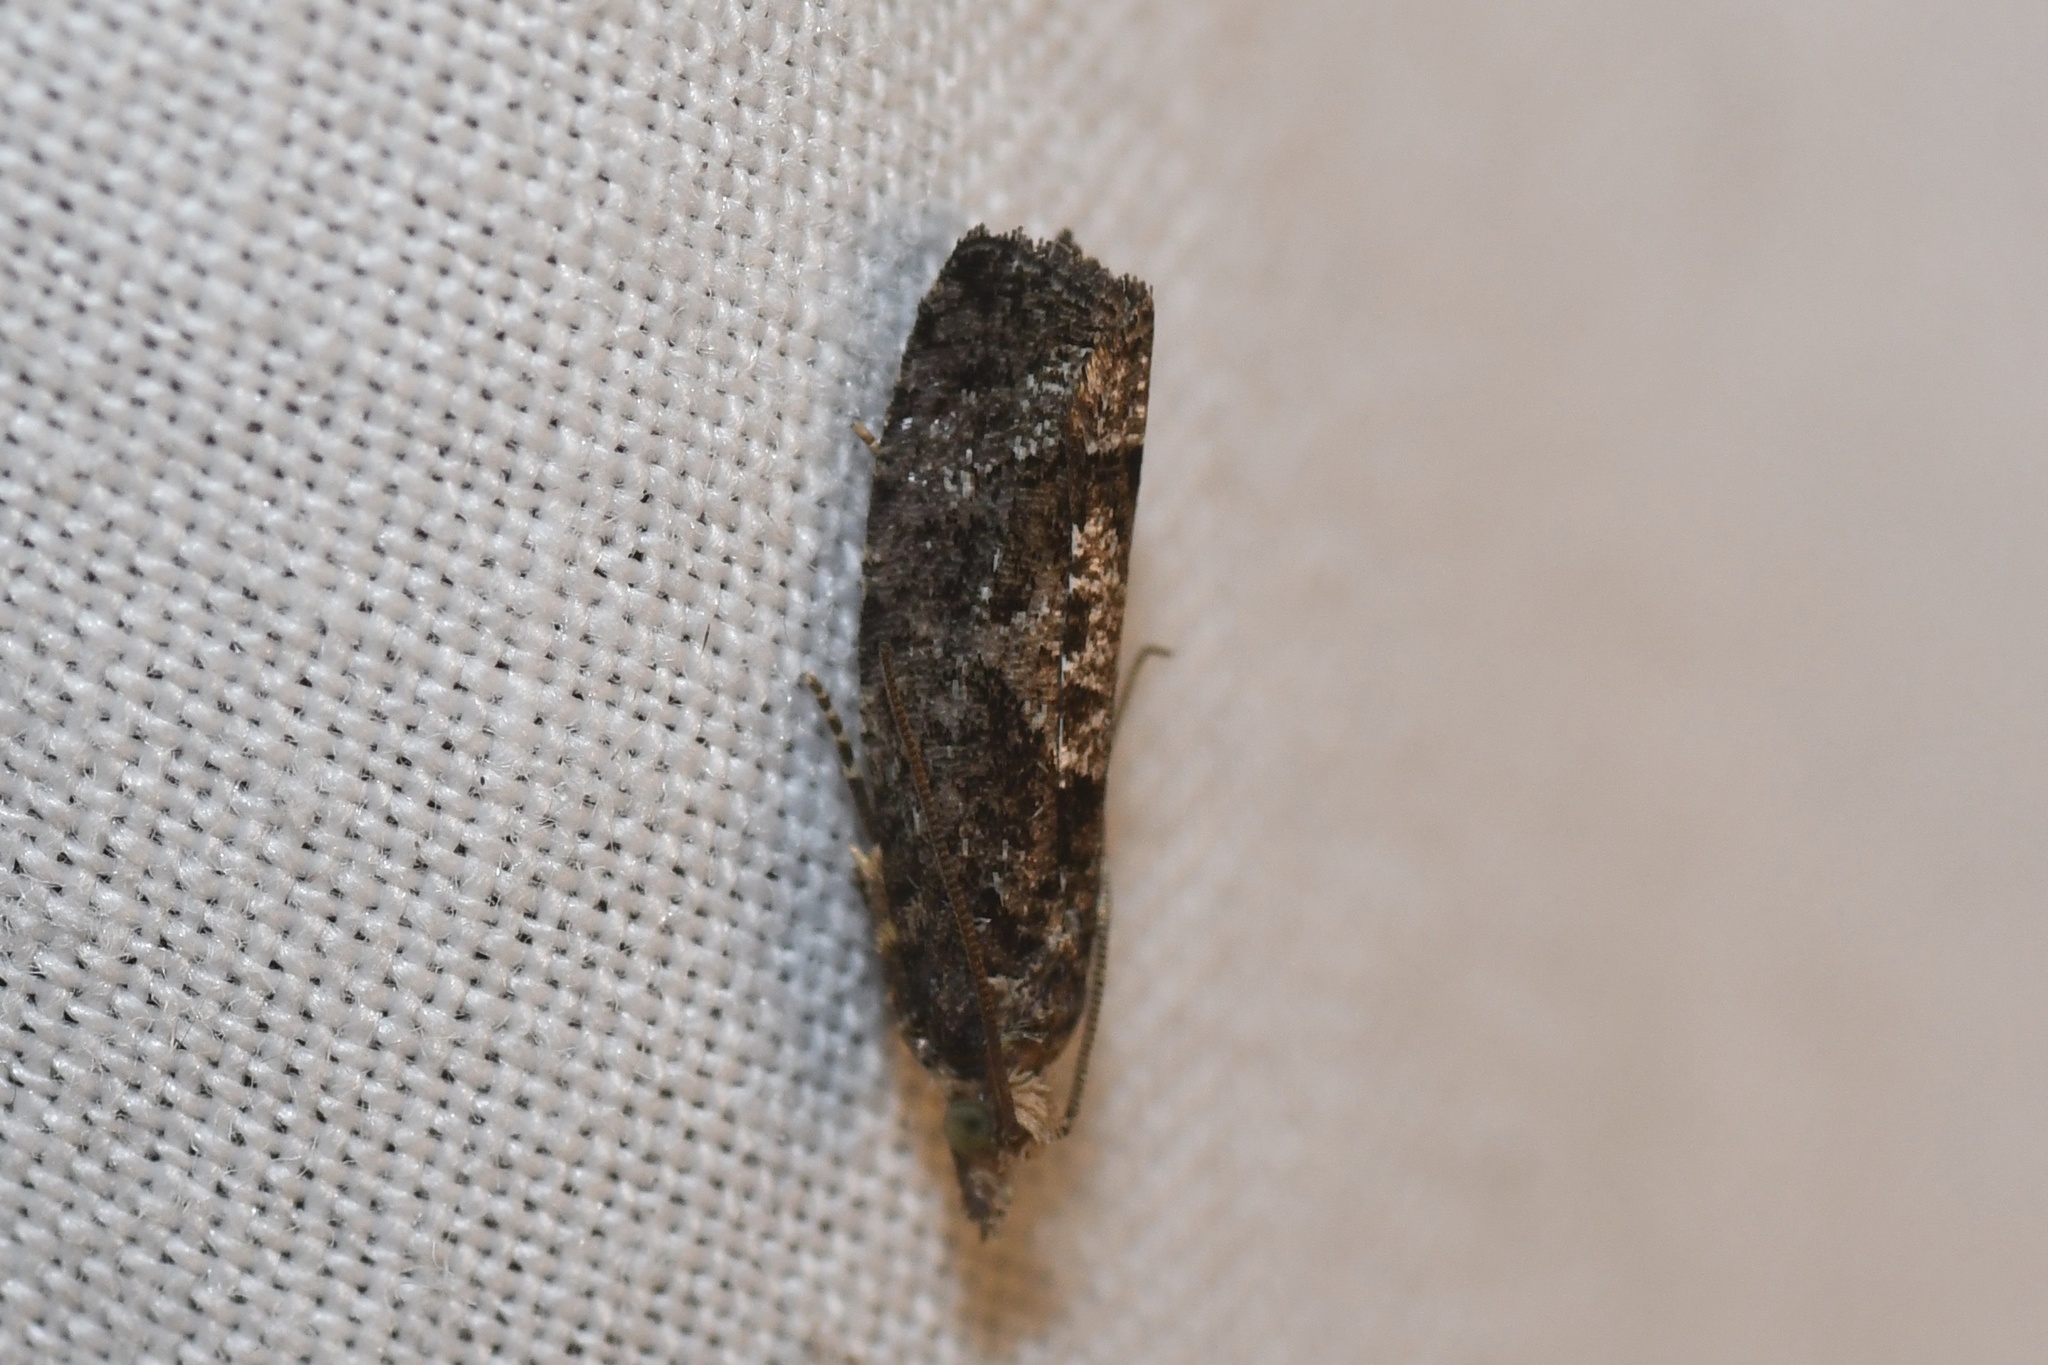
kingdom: Animalia
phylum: Arthropoda
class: Insecta
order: Lepidoptera
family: Tortricidae
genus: Epinotia
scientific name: Epinotia solandriana
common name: Variable bell
